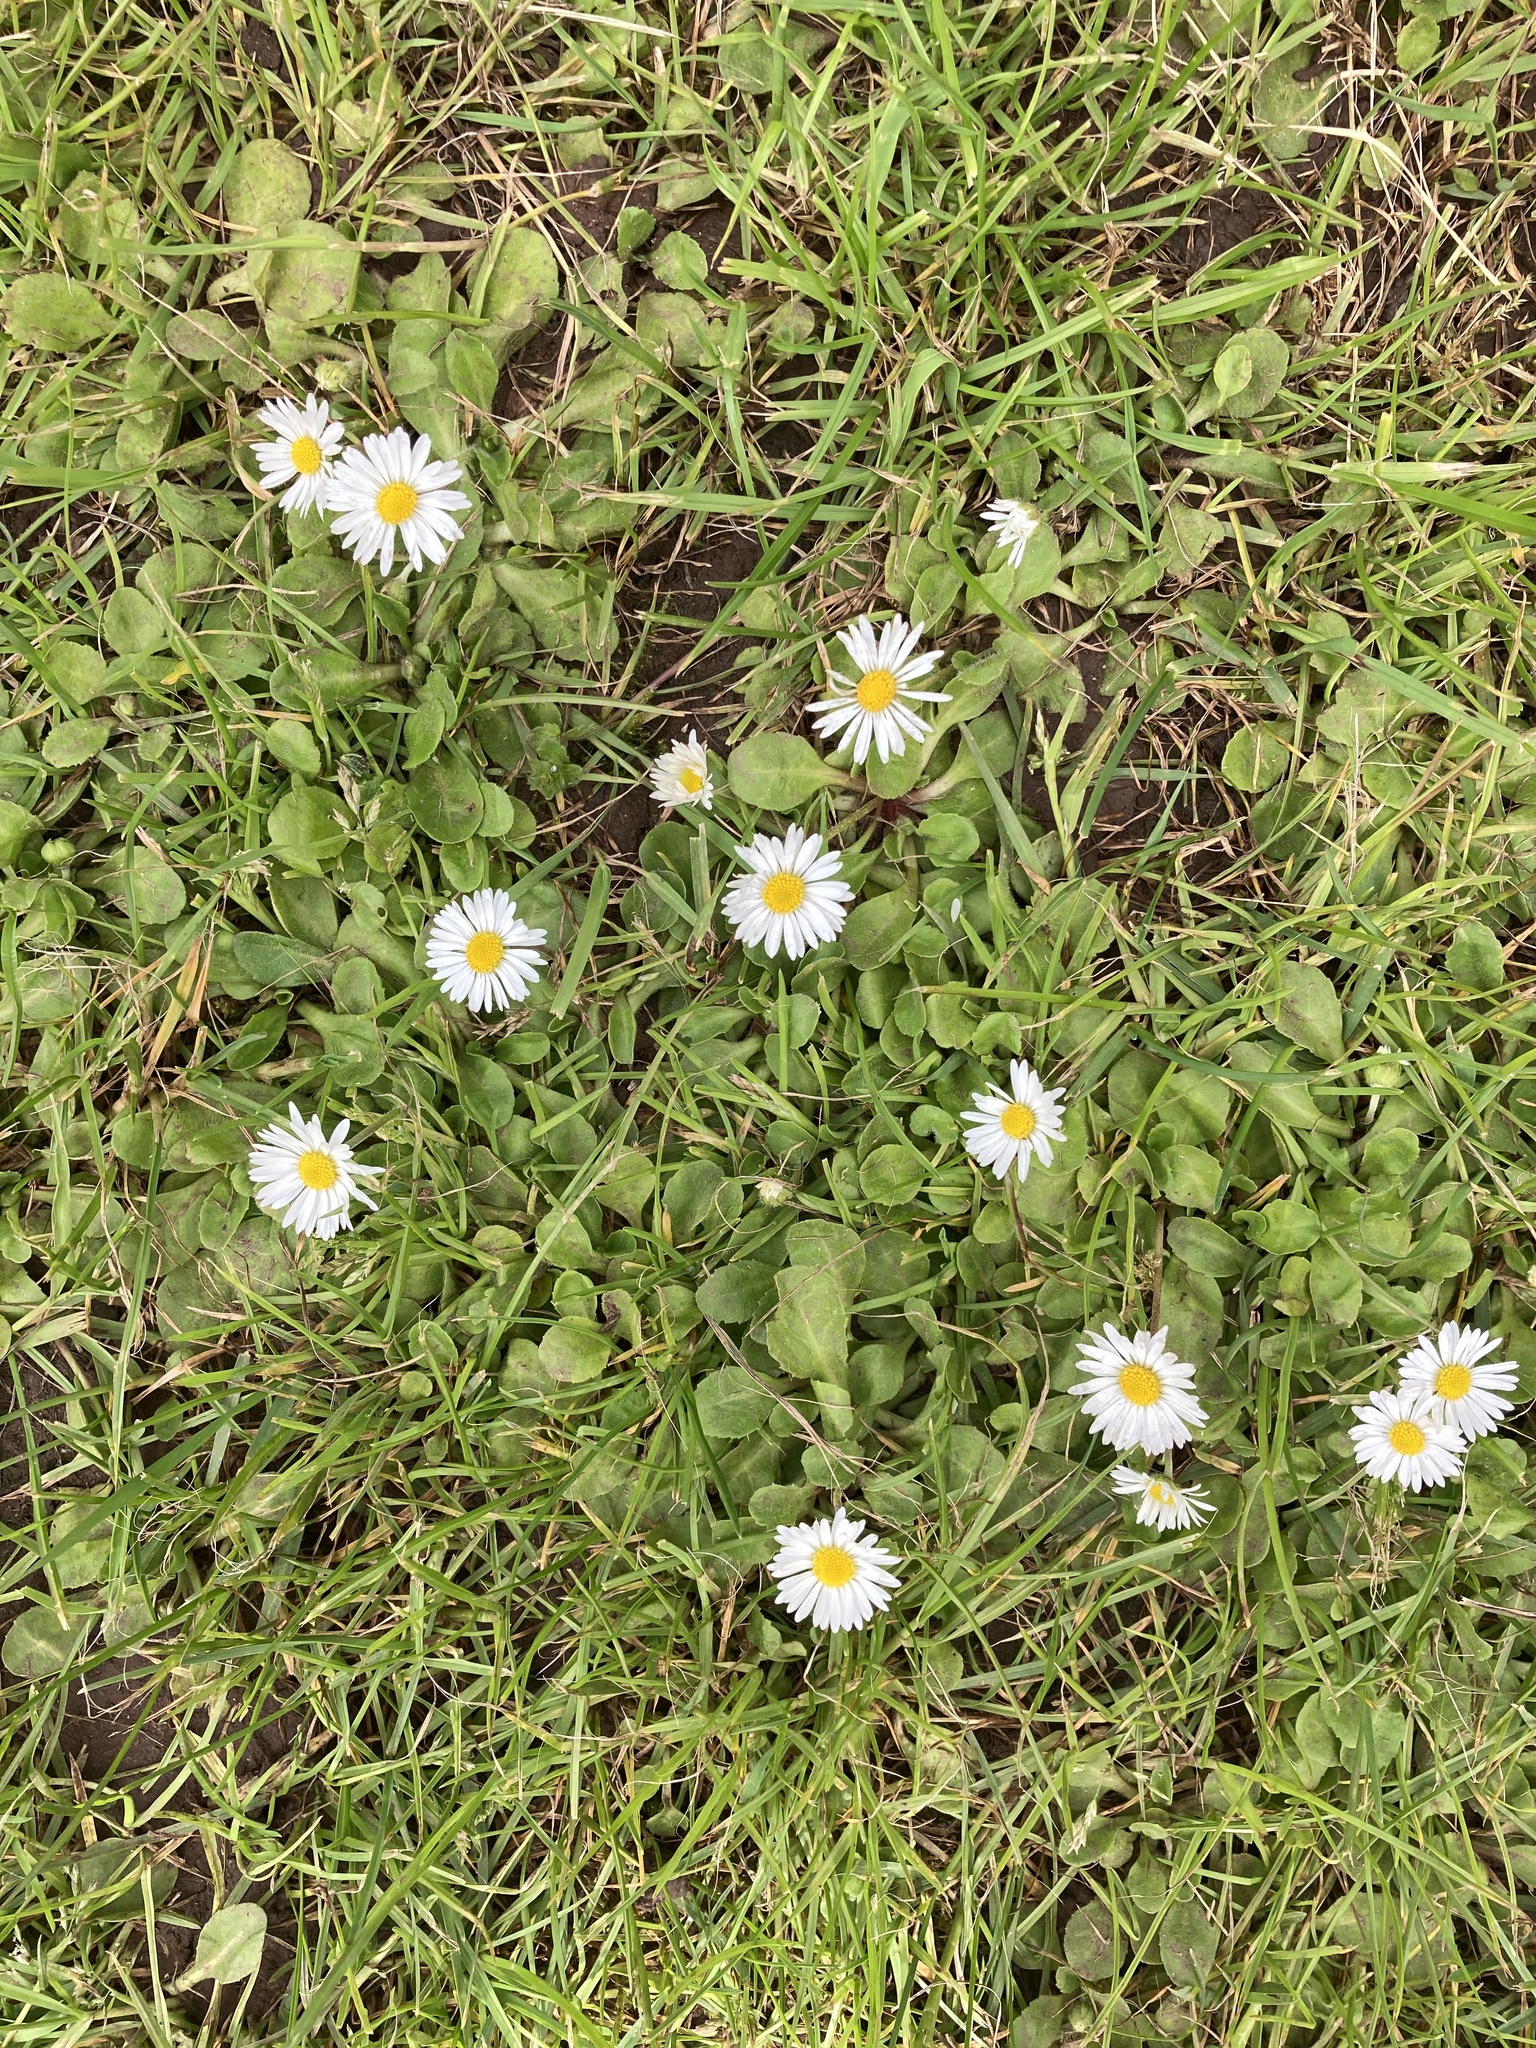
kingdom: Plantae
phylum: Tracheophyta
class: Magnoliopsida
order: Asterales
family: Asteraceae
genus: Bellis
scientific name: Bellis perennis
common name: Lawndaisy
